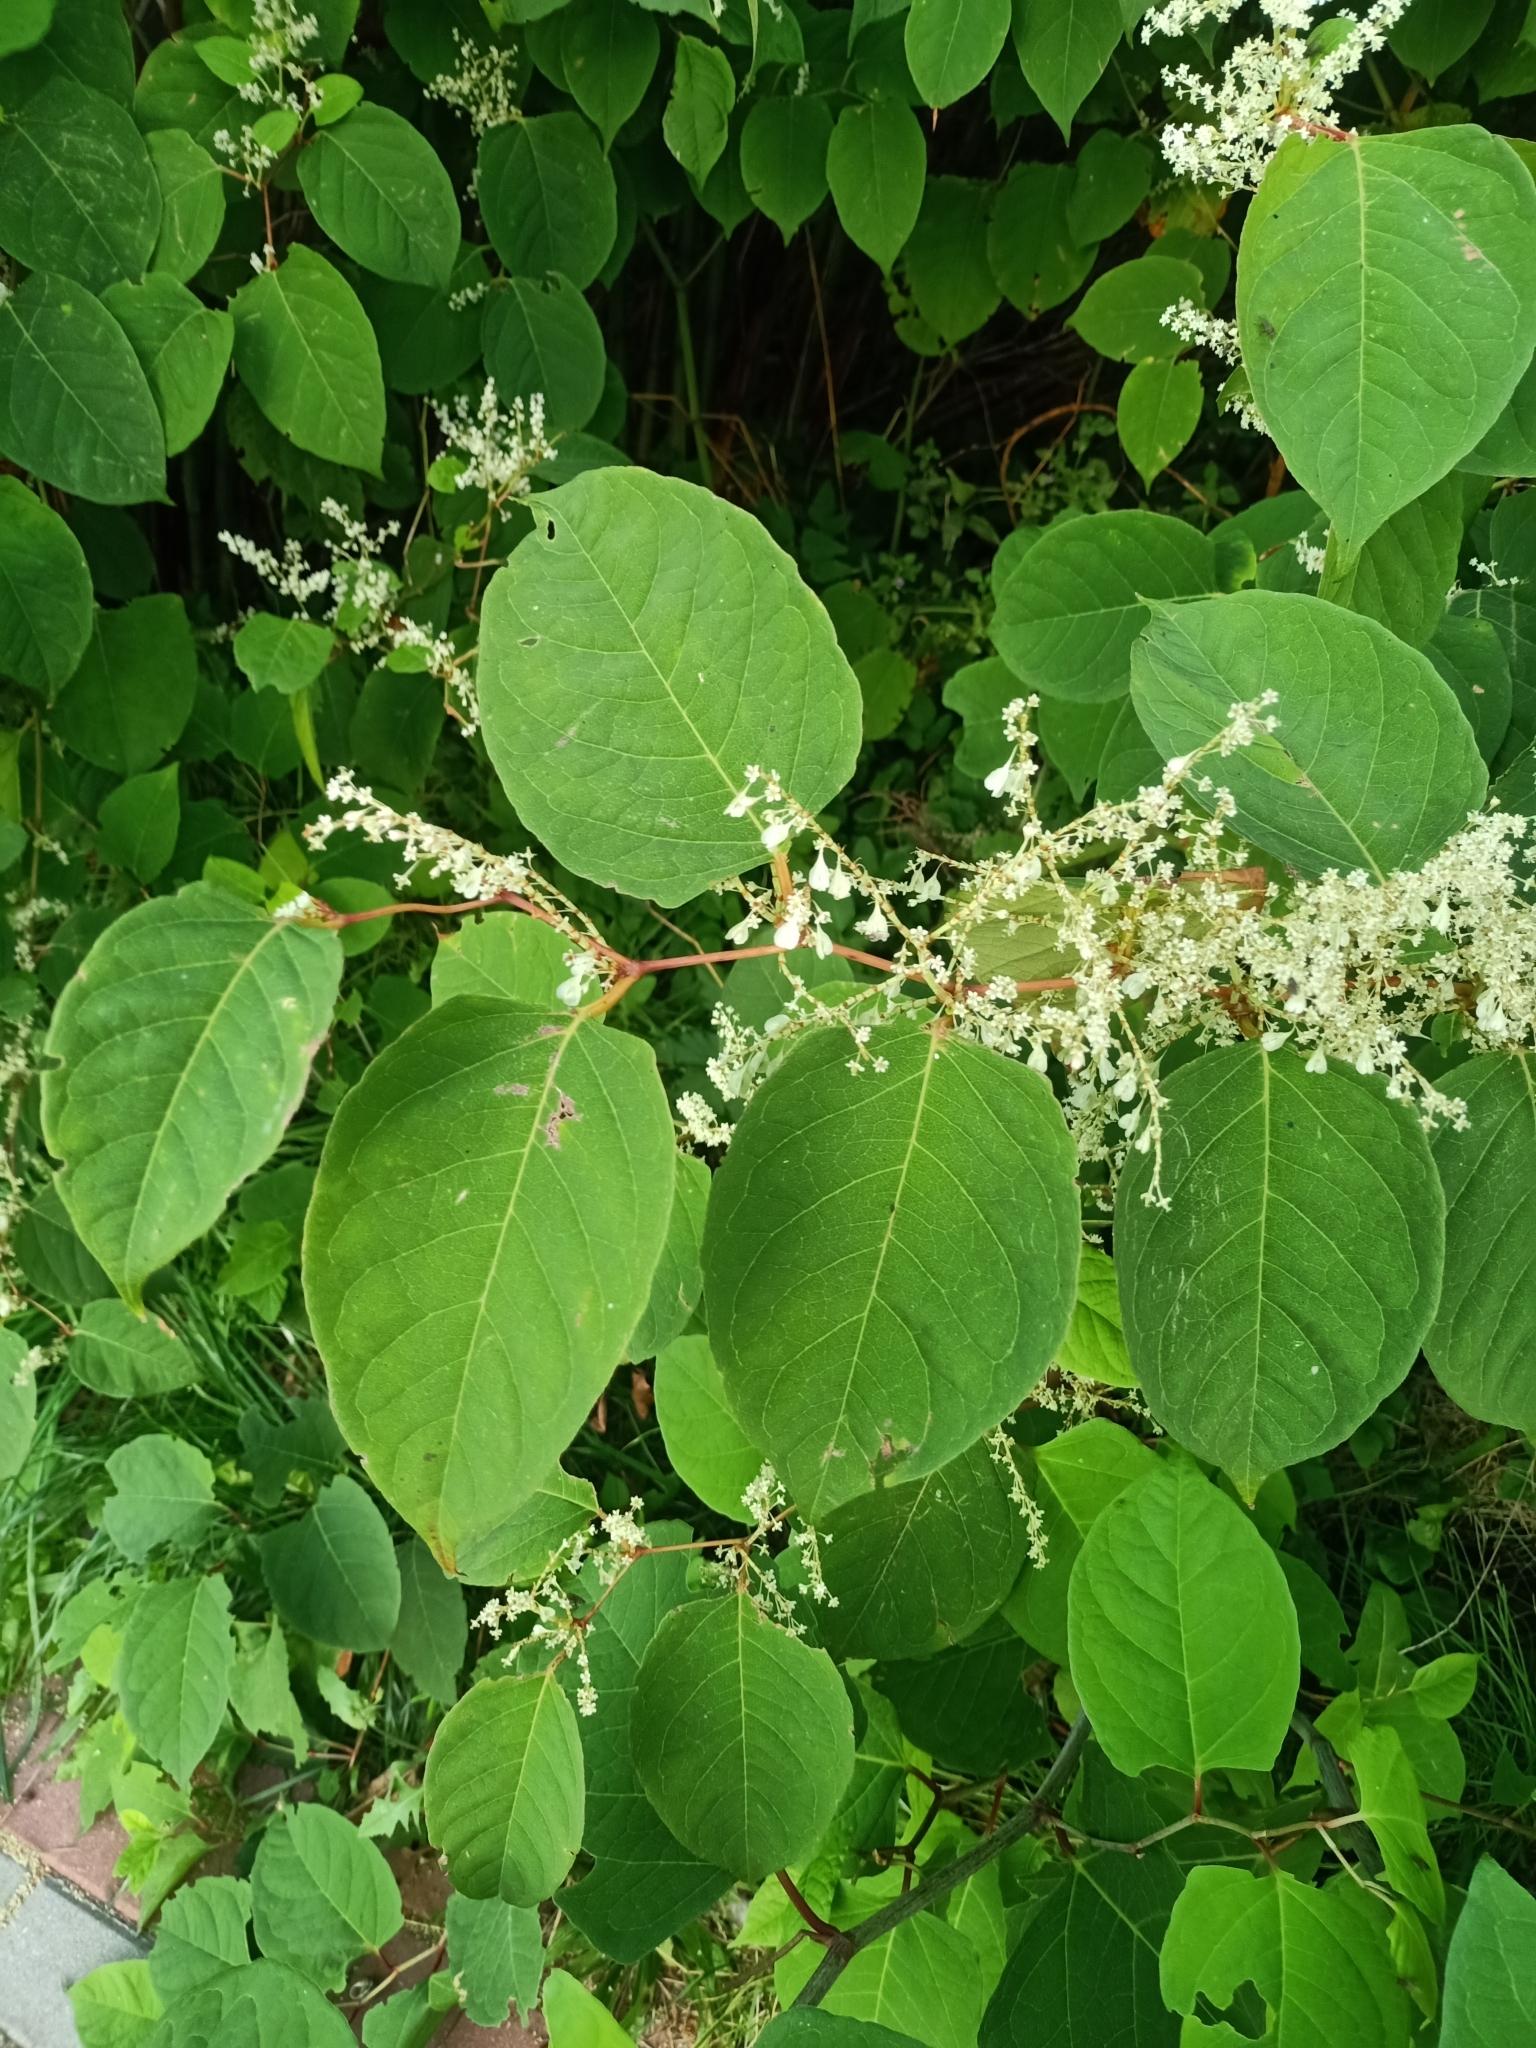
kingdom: Plantae
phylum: Tracheophyta
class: Magnoliopsida
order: Caryophyllales
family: Polygonaceae
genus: Reynoutria
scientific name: Reynoutria japonica
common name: Japanese knotweed
